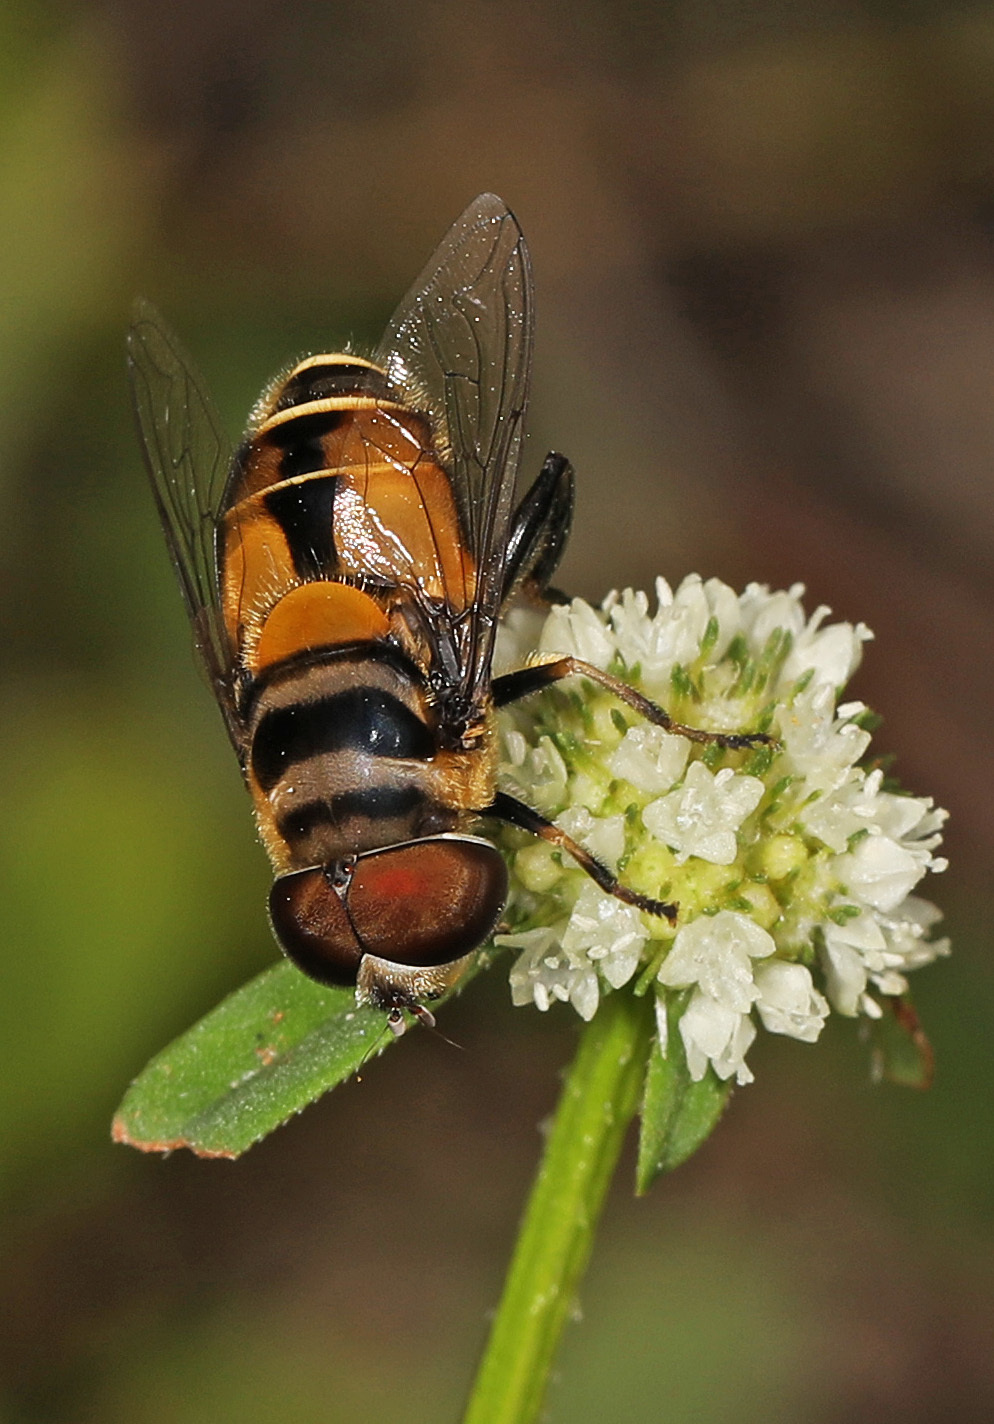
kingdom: Animalia
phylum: Arthropoda
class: Insecta
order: Diptera
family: Syrphidae
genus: Palpada
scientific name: Palpada agrorum
